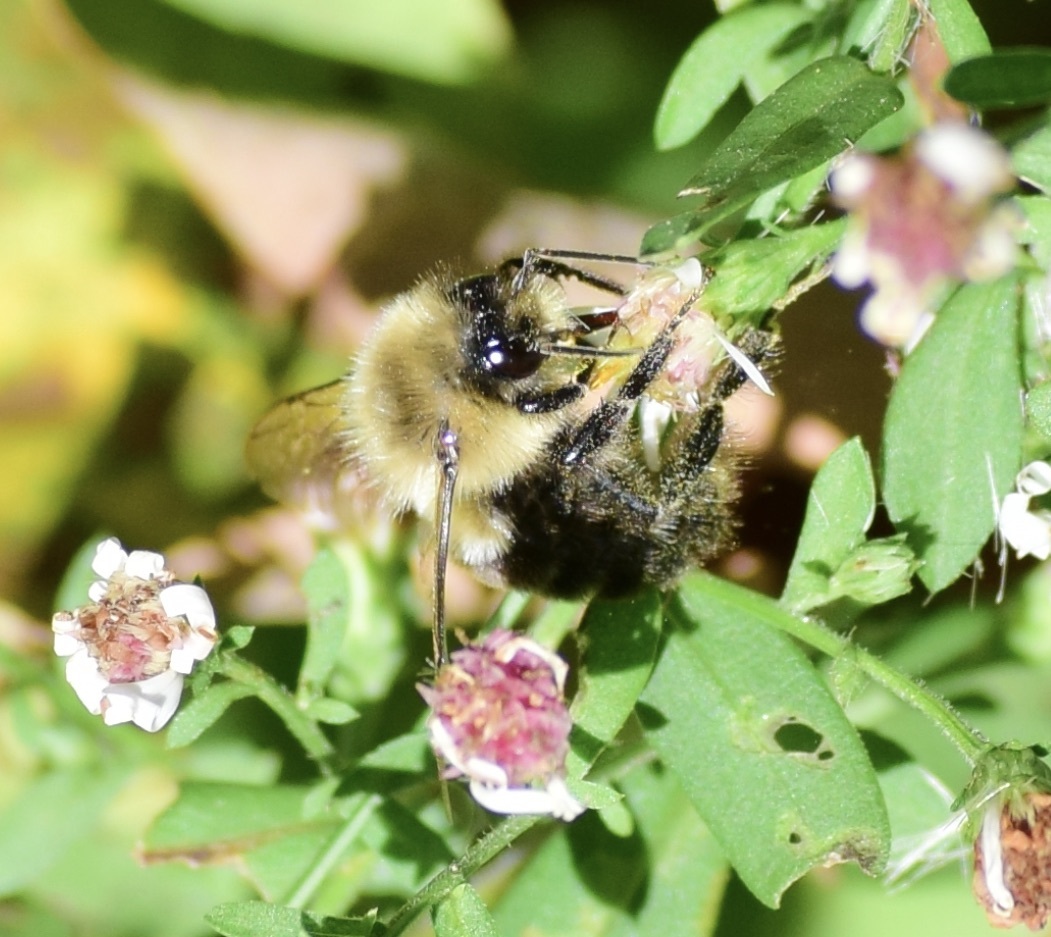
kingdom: Animalia
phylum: Arthropoda
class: Insecta
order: Hymenoptera
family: Apidae
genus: Bombus
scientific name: Bombus impatiens
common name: Common eastern bumble bee
